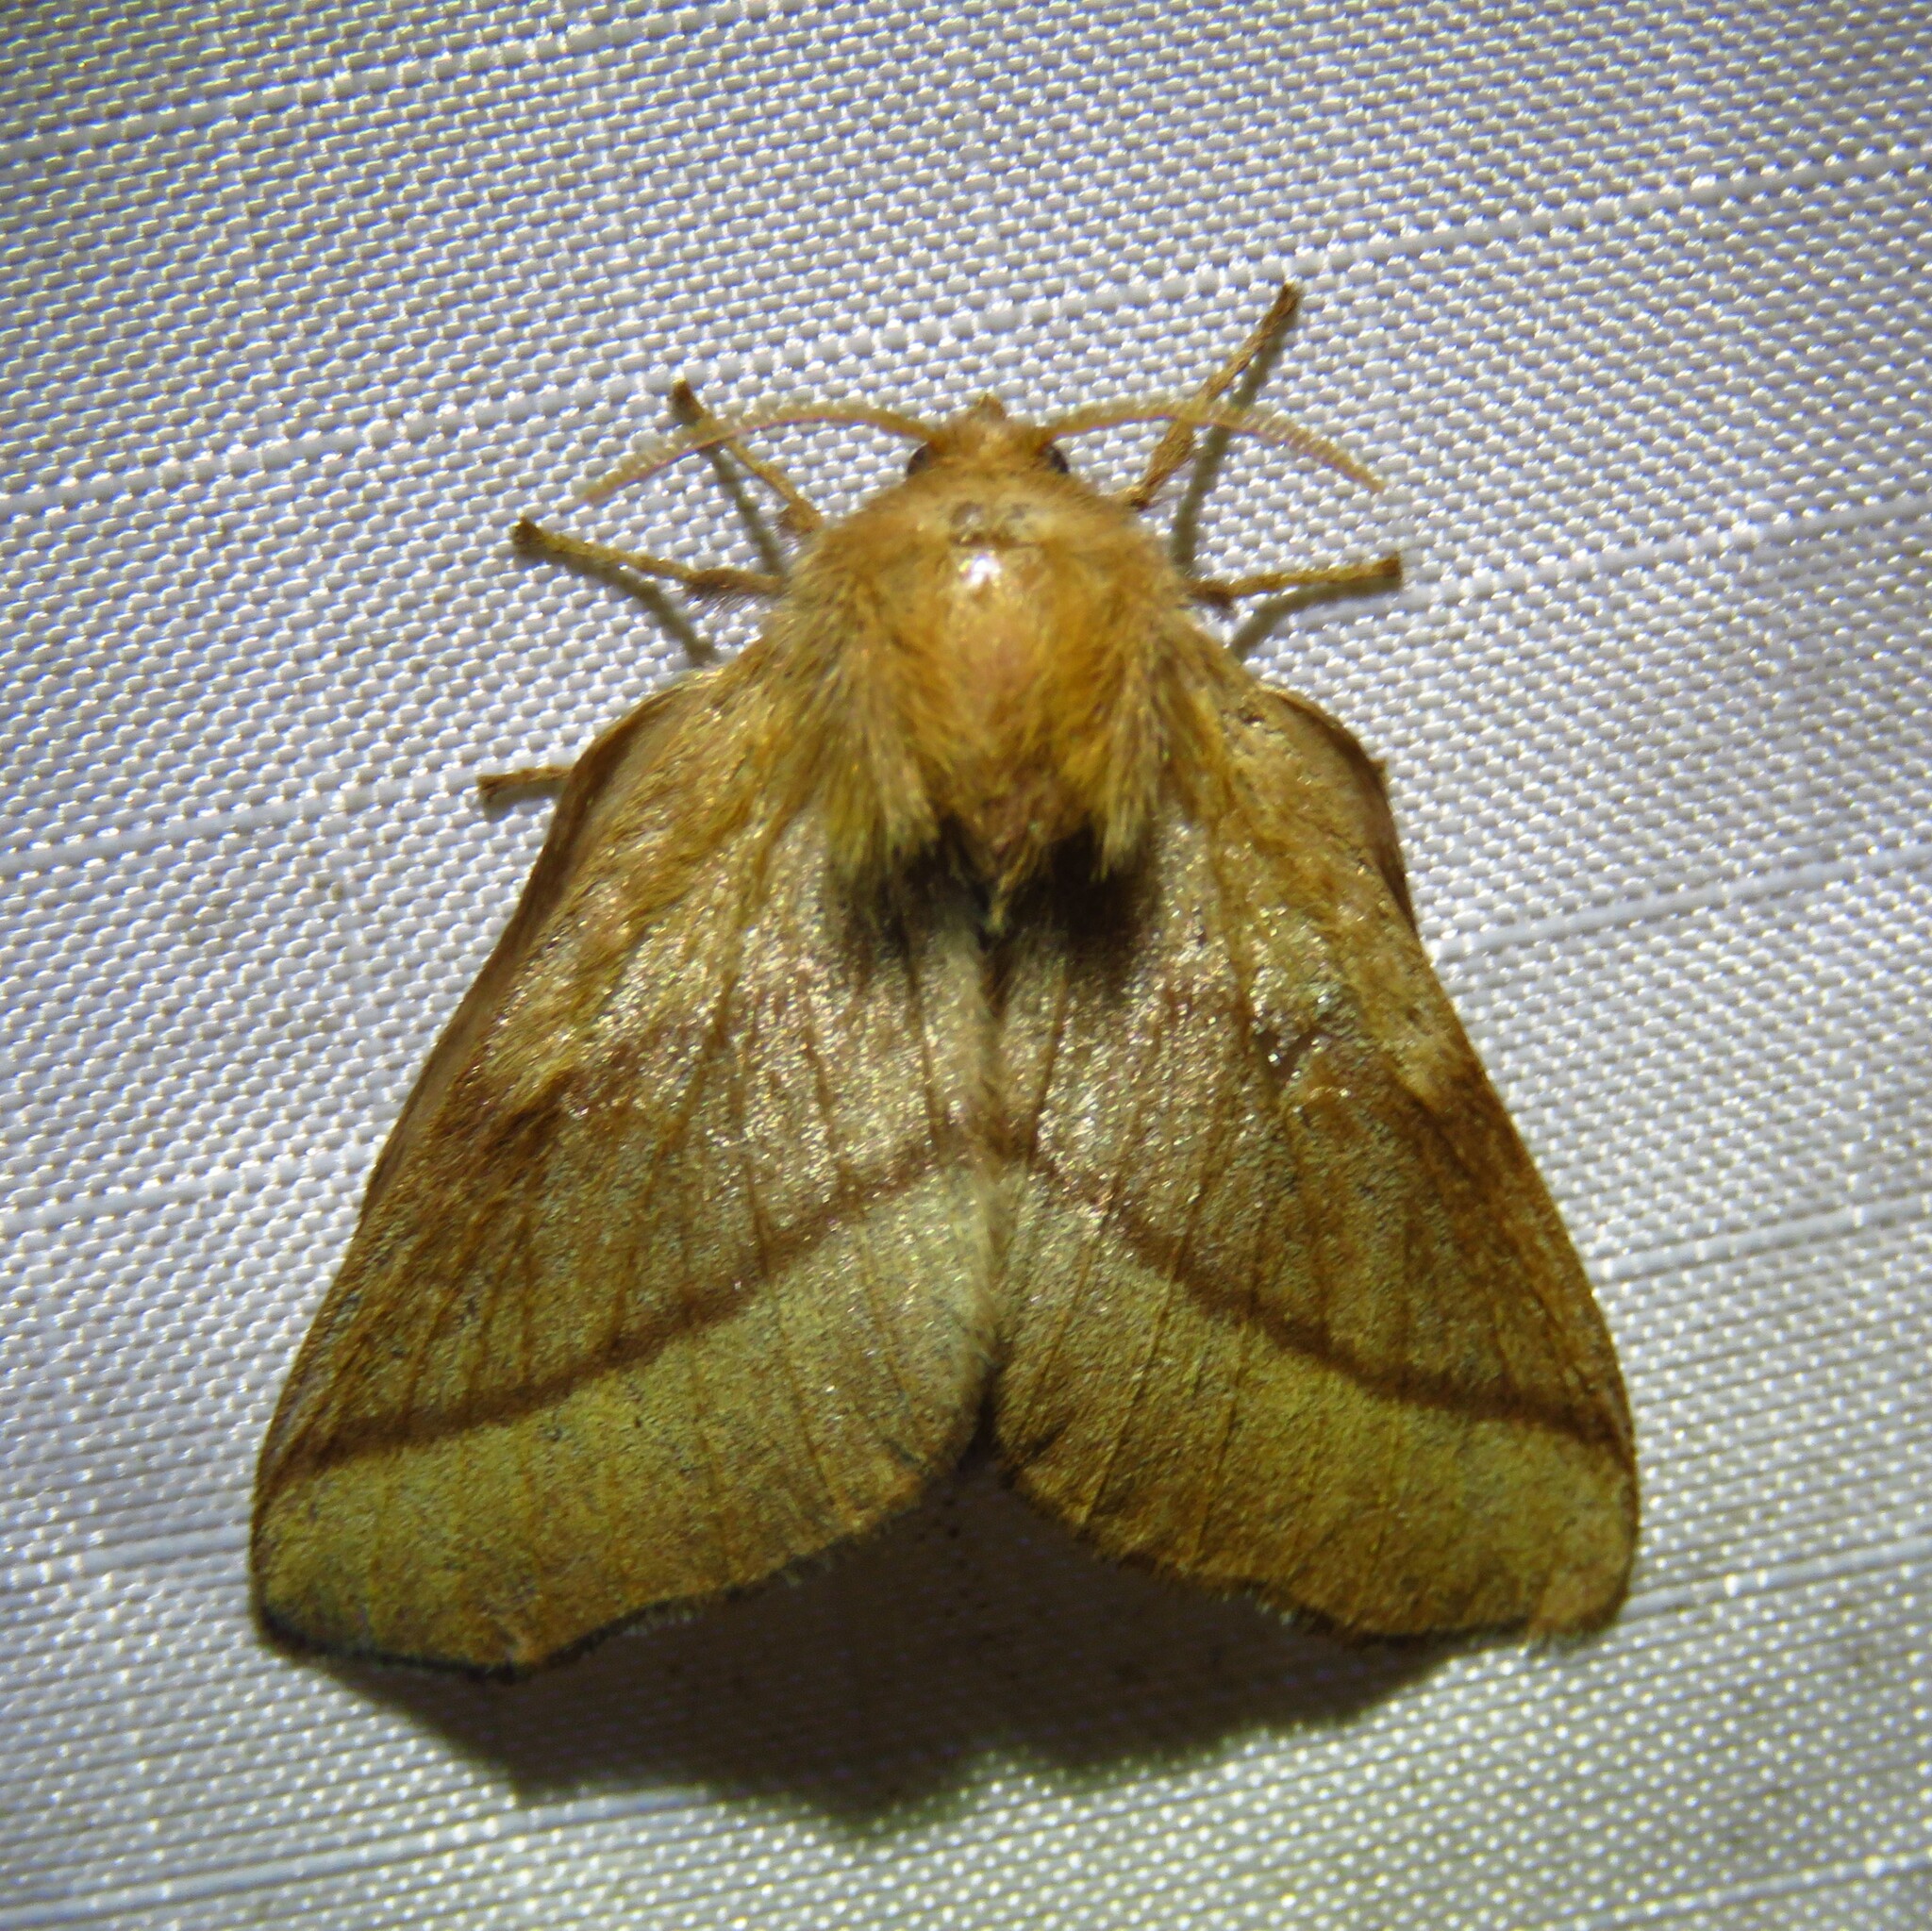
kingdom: Animalia
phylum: Arthropoda
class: Insecta
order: Lepidoptera
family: Lasiocampidae
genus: Malacosoma
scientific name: Malacosoma disstria
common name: Forest tent caterpillar
